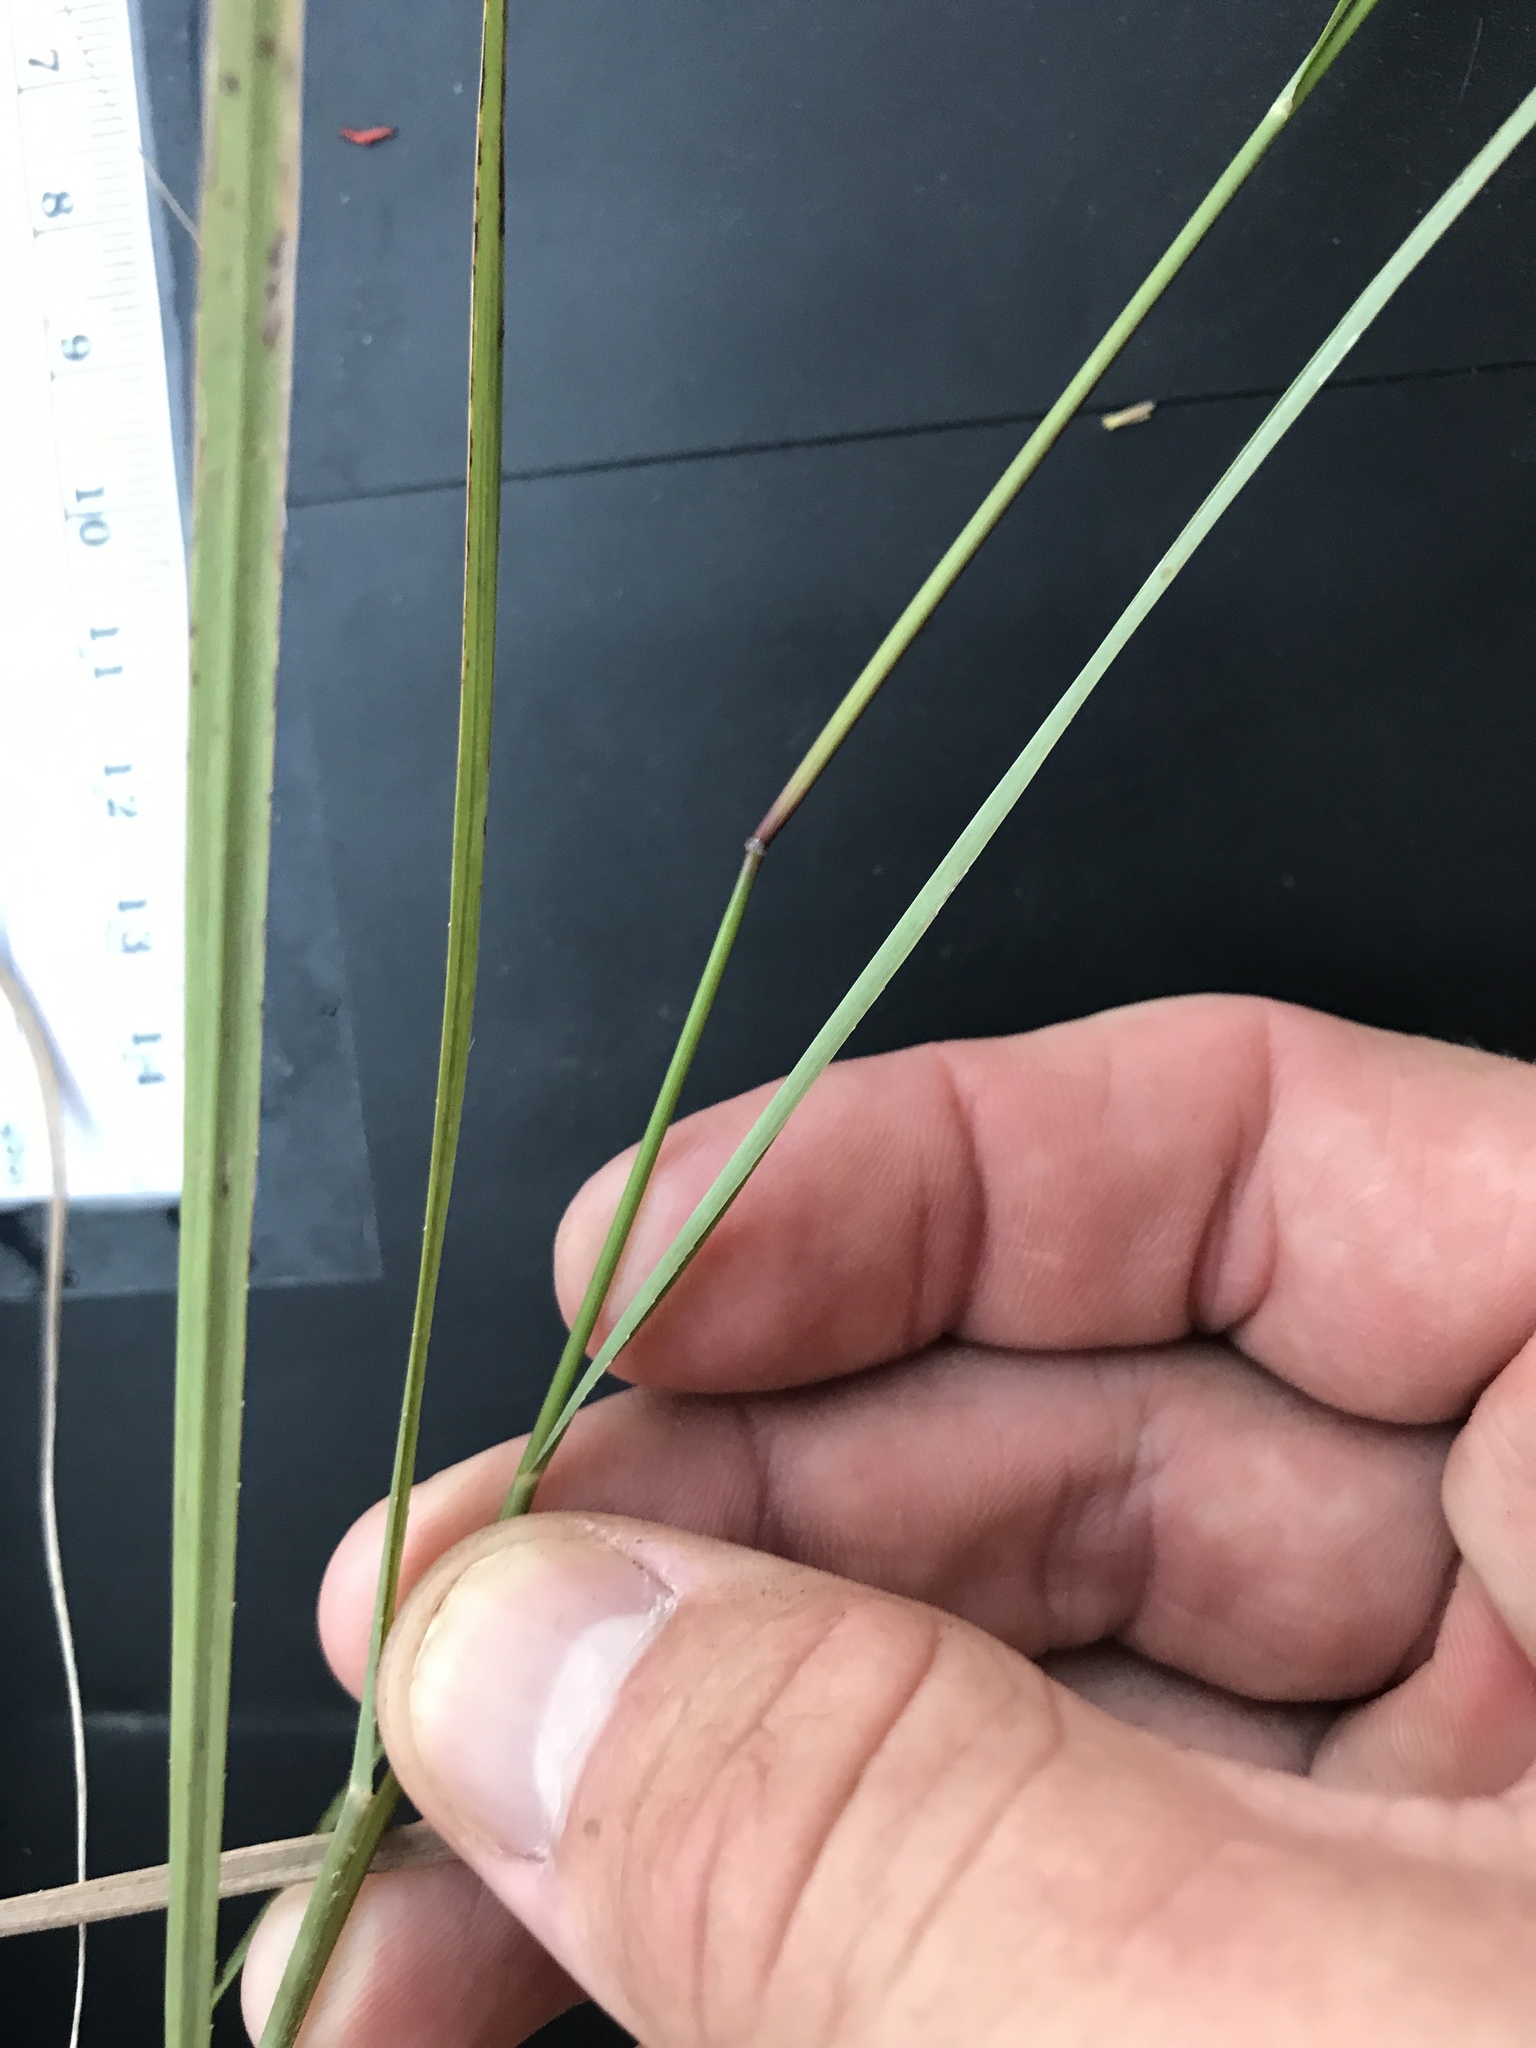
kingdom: Plantae
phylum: Tracheophyta
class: Liliopsida
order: Poales
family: Poaceae
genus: Bouteloua
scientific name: Bouteloua curtipendula
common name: Side-oats grama
